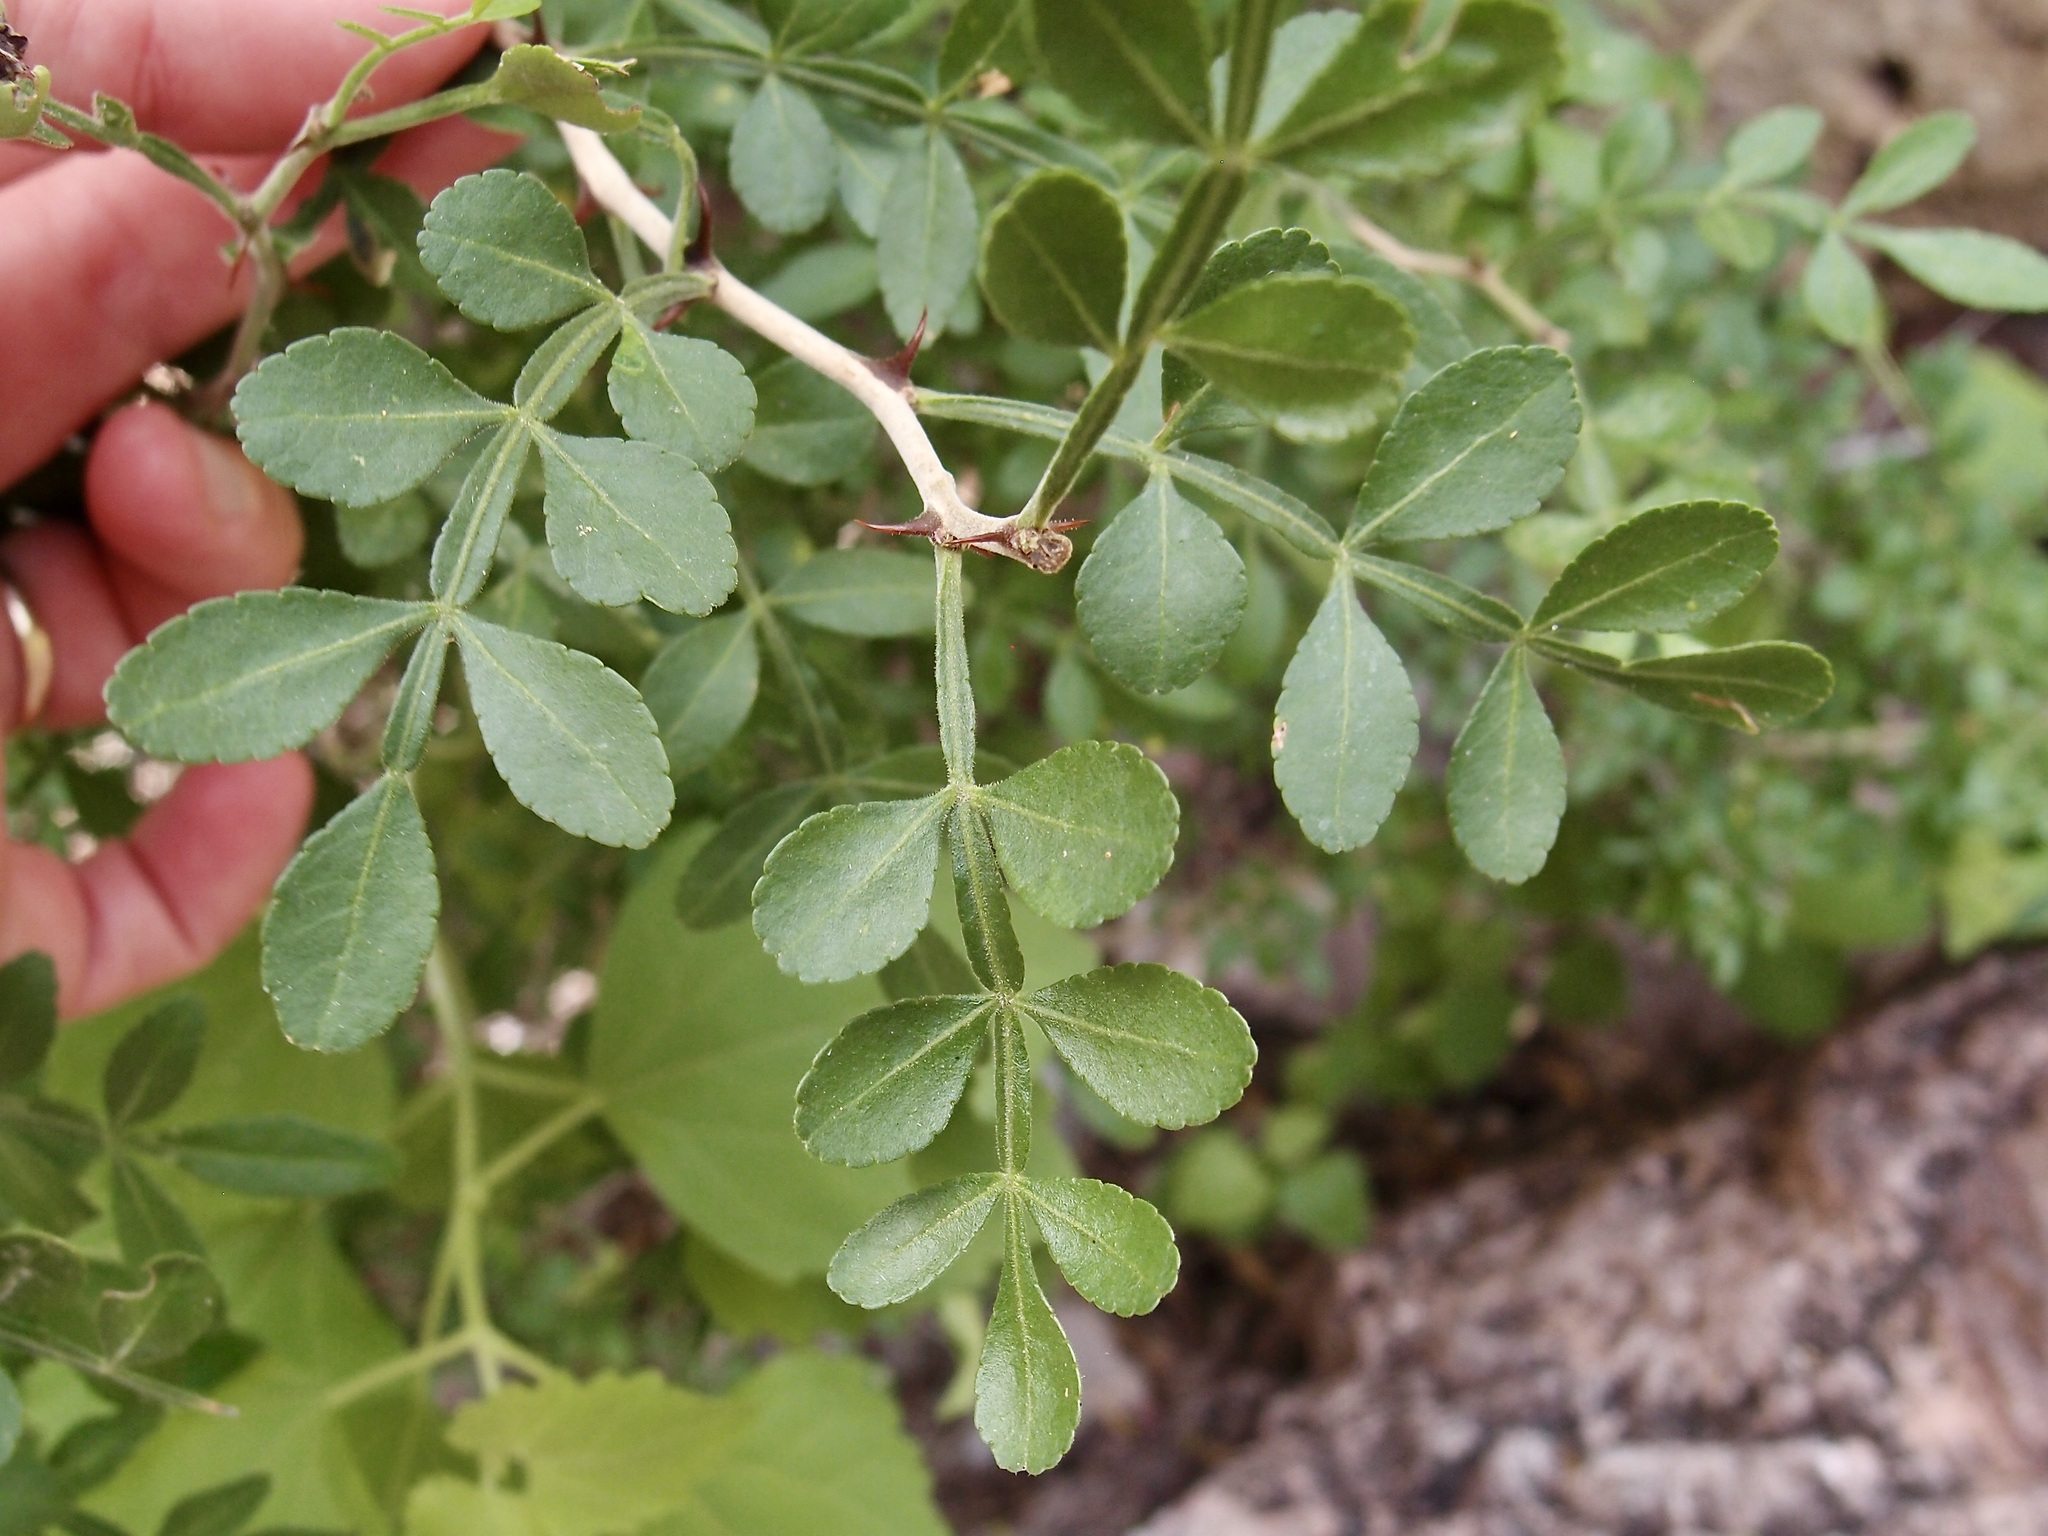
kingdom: Plantae
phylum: Tracheophyta
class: Magnoliopsida
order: Sapindales
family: Rutaceae
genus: Zanthoxylum
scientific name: Zanthoxylum fagara
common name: Lime prickly-ash
